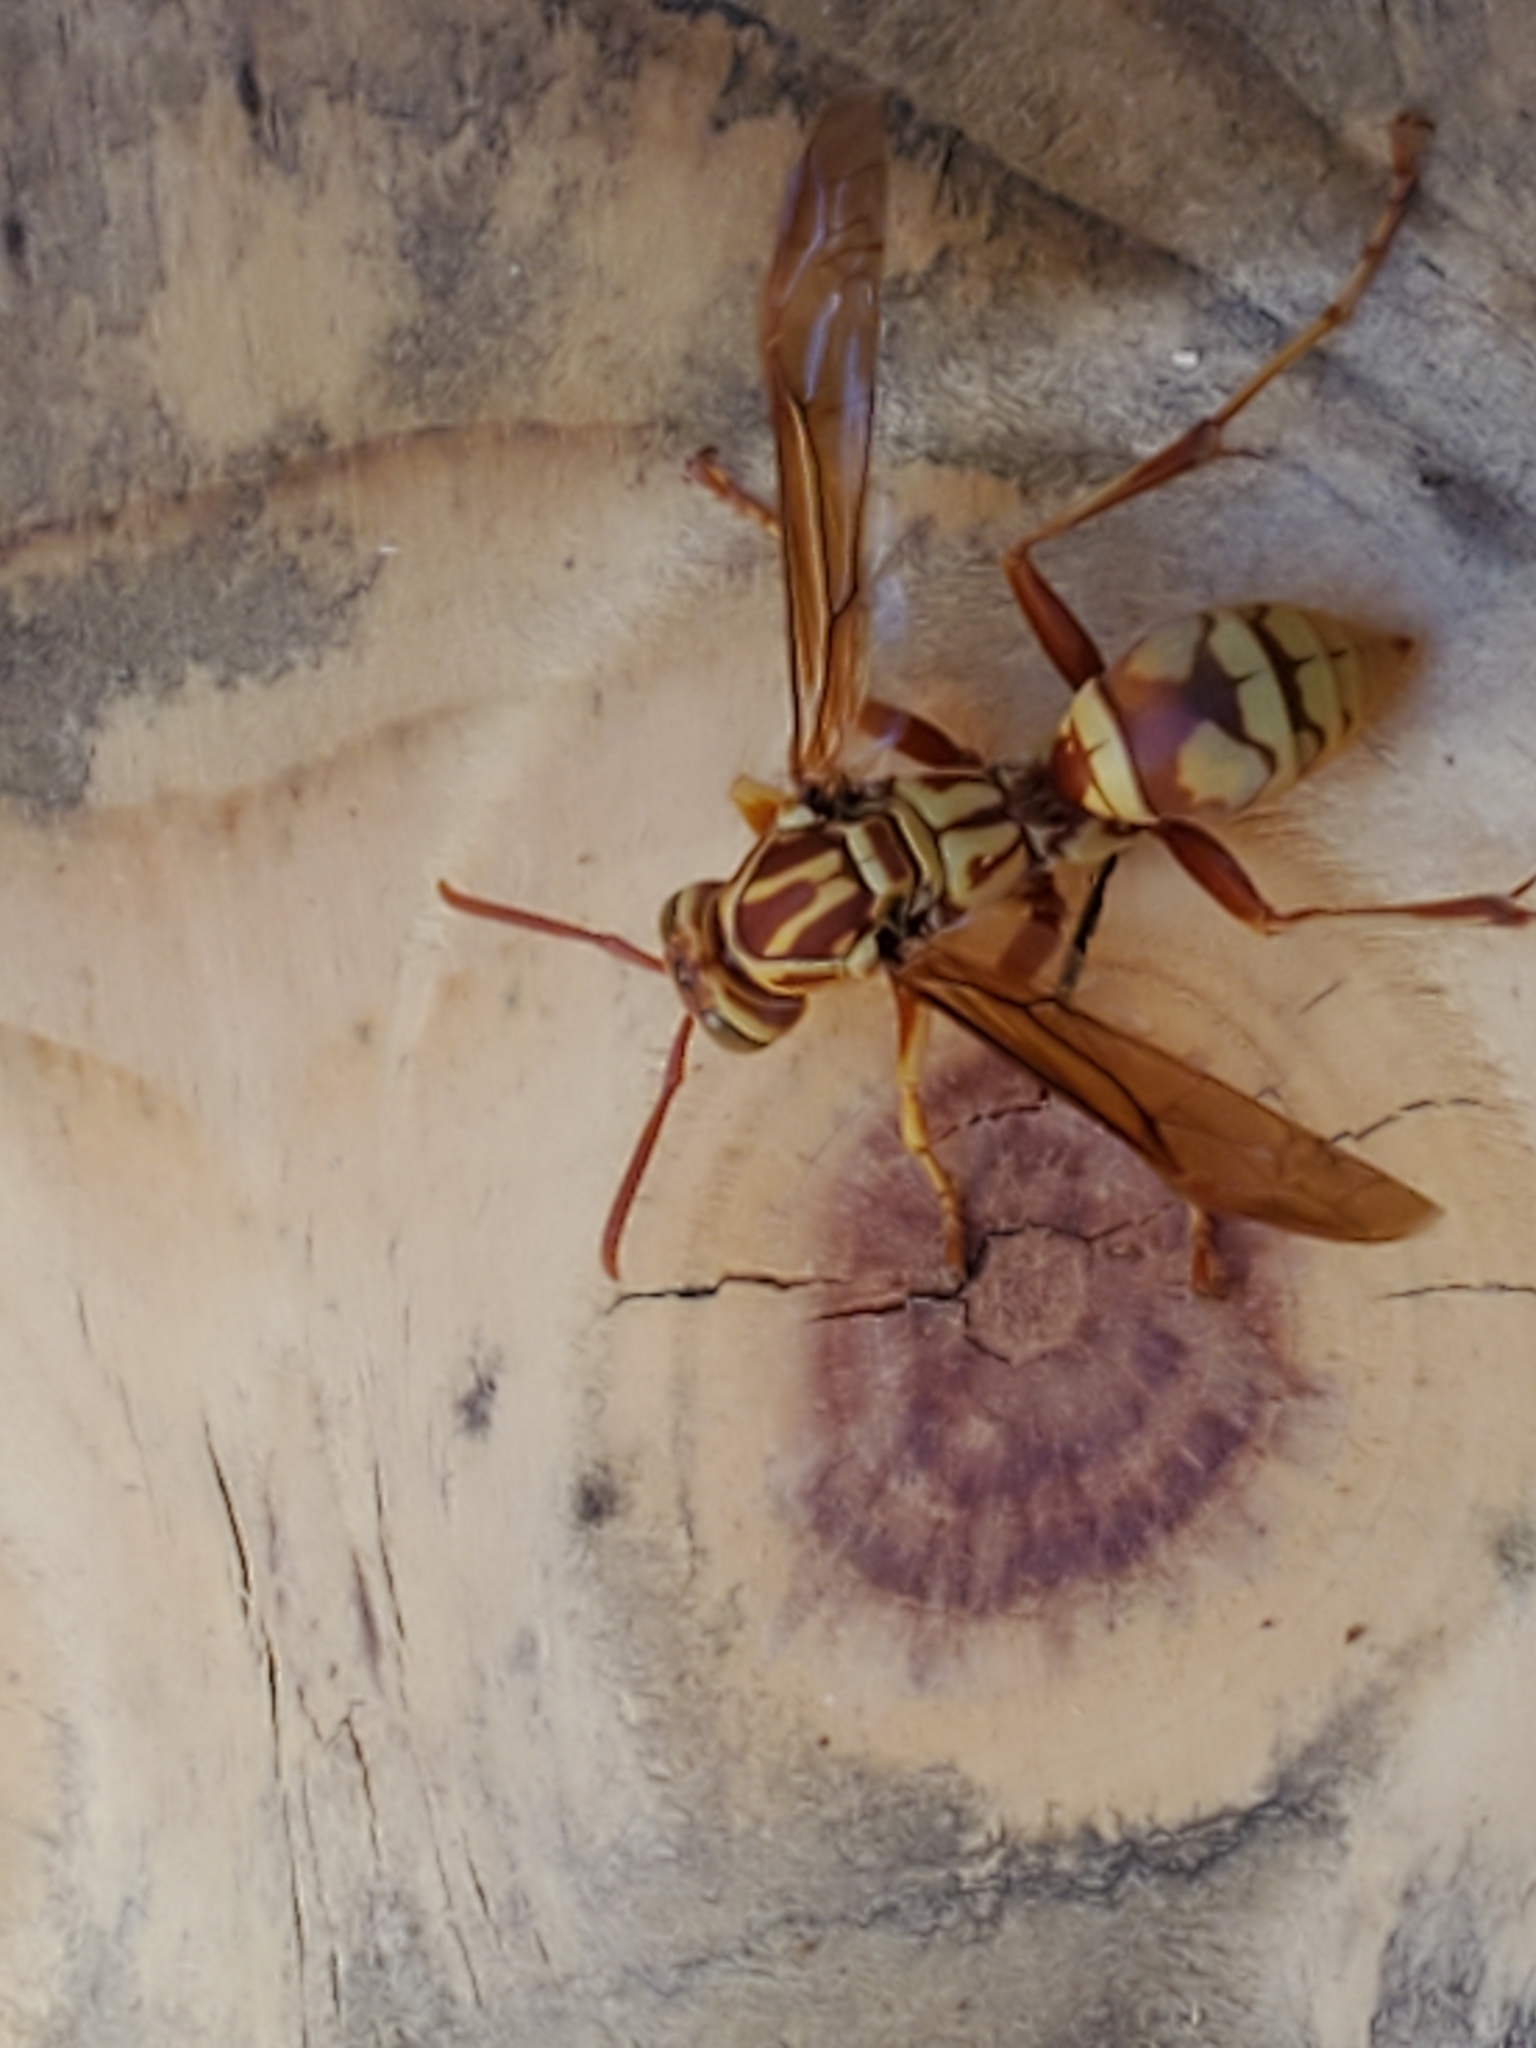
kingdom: Animalia
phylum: Arthropoda
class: Insecta
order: Hymenoptera
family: Eumenidae
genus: Polistes
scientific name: Polistes apachus
